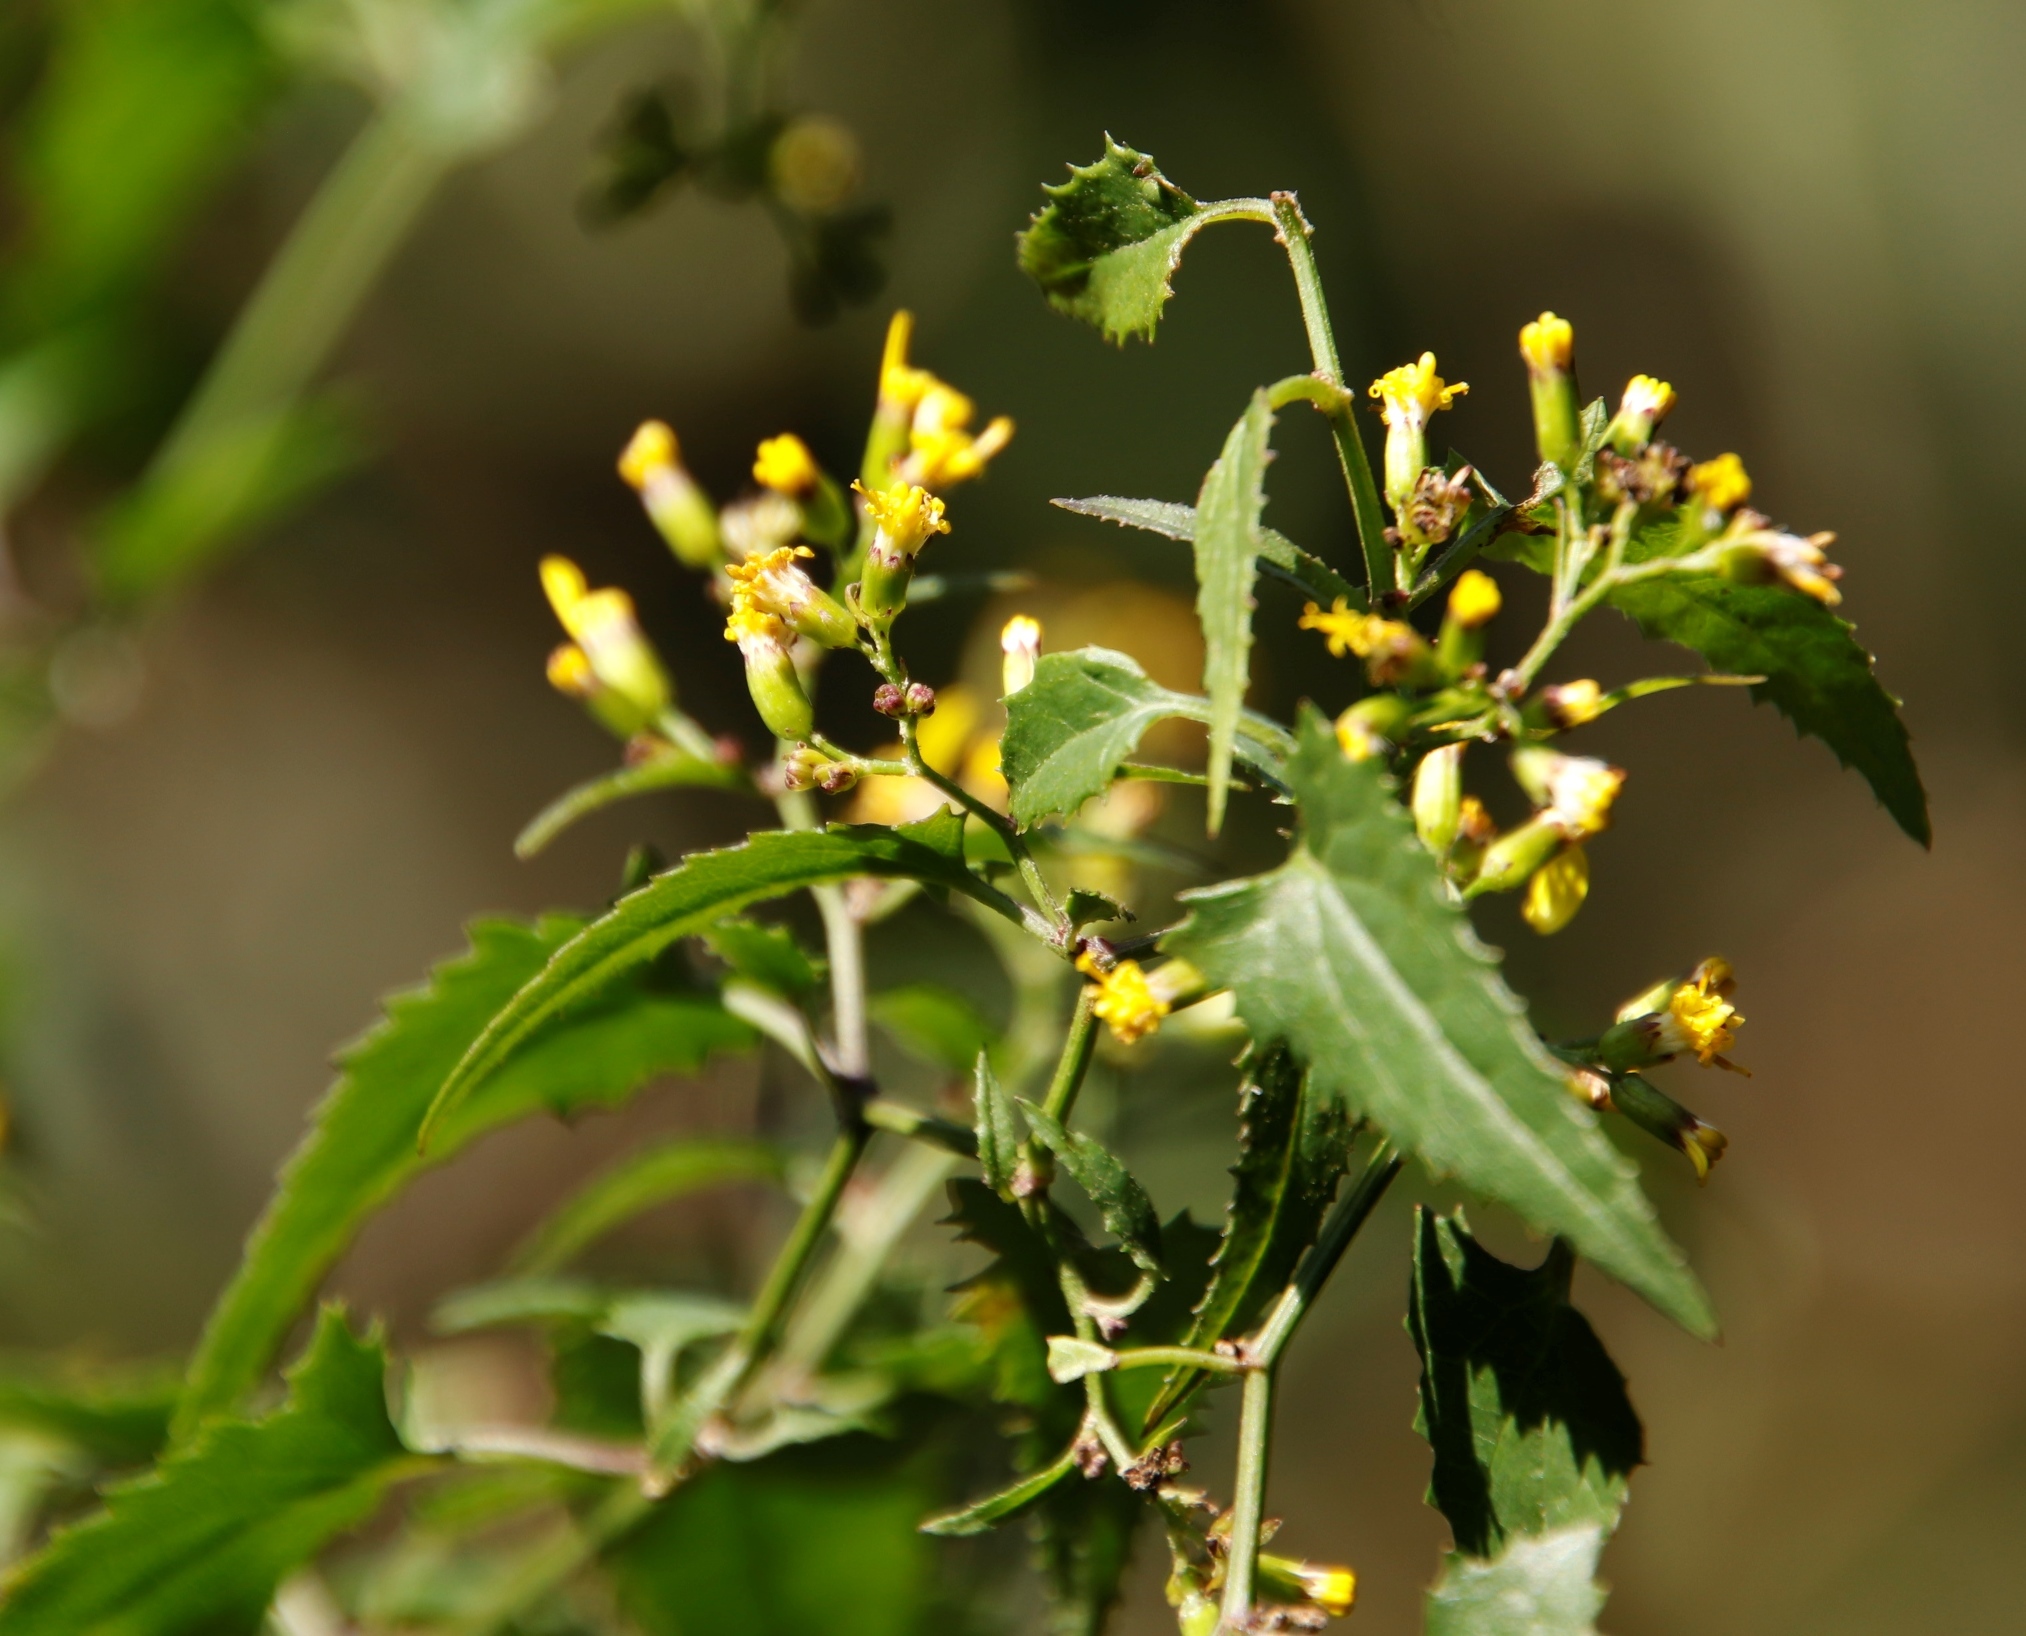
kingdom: Plantae
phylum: Tracheophyta
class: Magnoliopsida
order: Asterales
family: Asteraceae
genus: Senecio
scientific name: Senecio deltoideus
